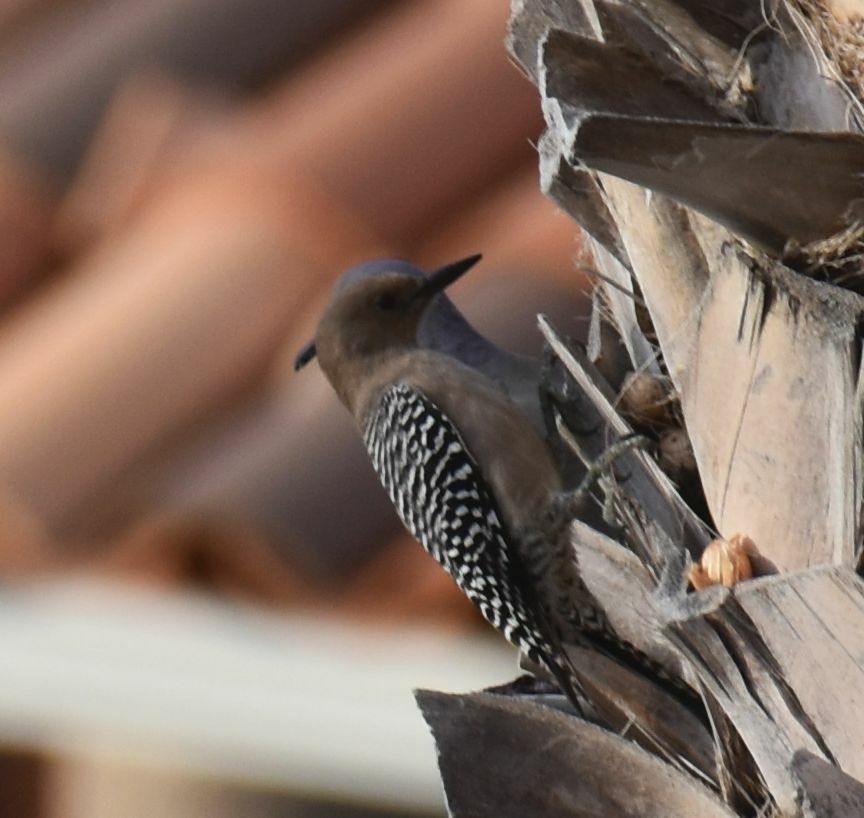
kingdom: Animalia
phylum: Chordata
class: Aves
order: Piciformes
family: Picidae
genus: Melanerpes
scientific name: Melanerpes uropygialis
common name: Gila woodpecker
